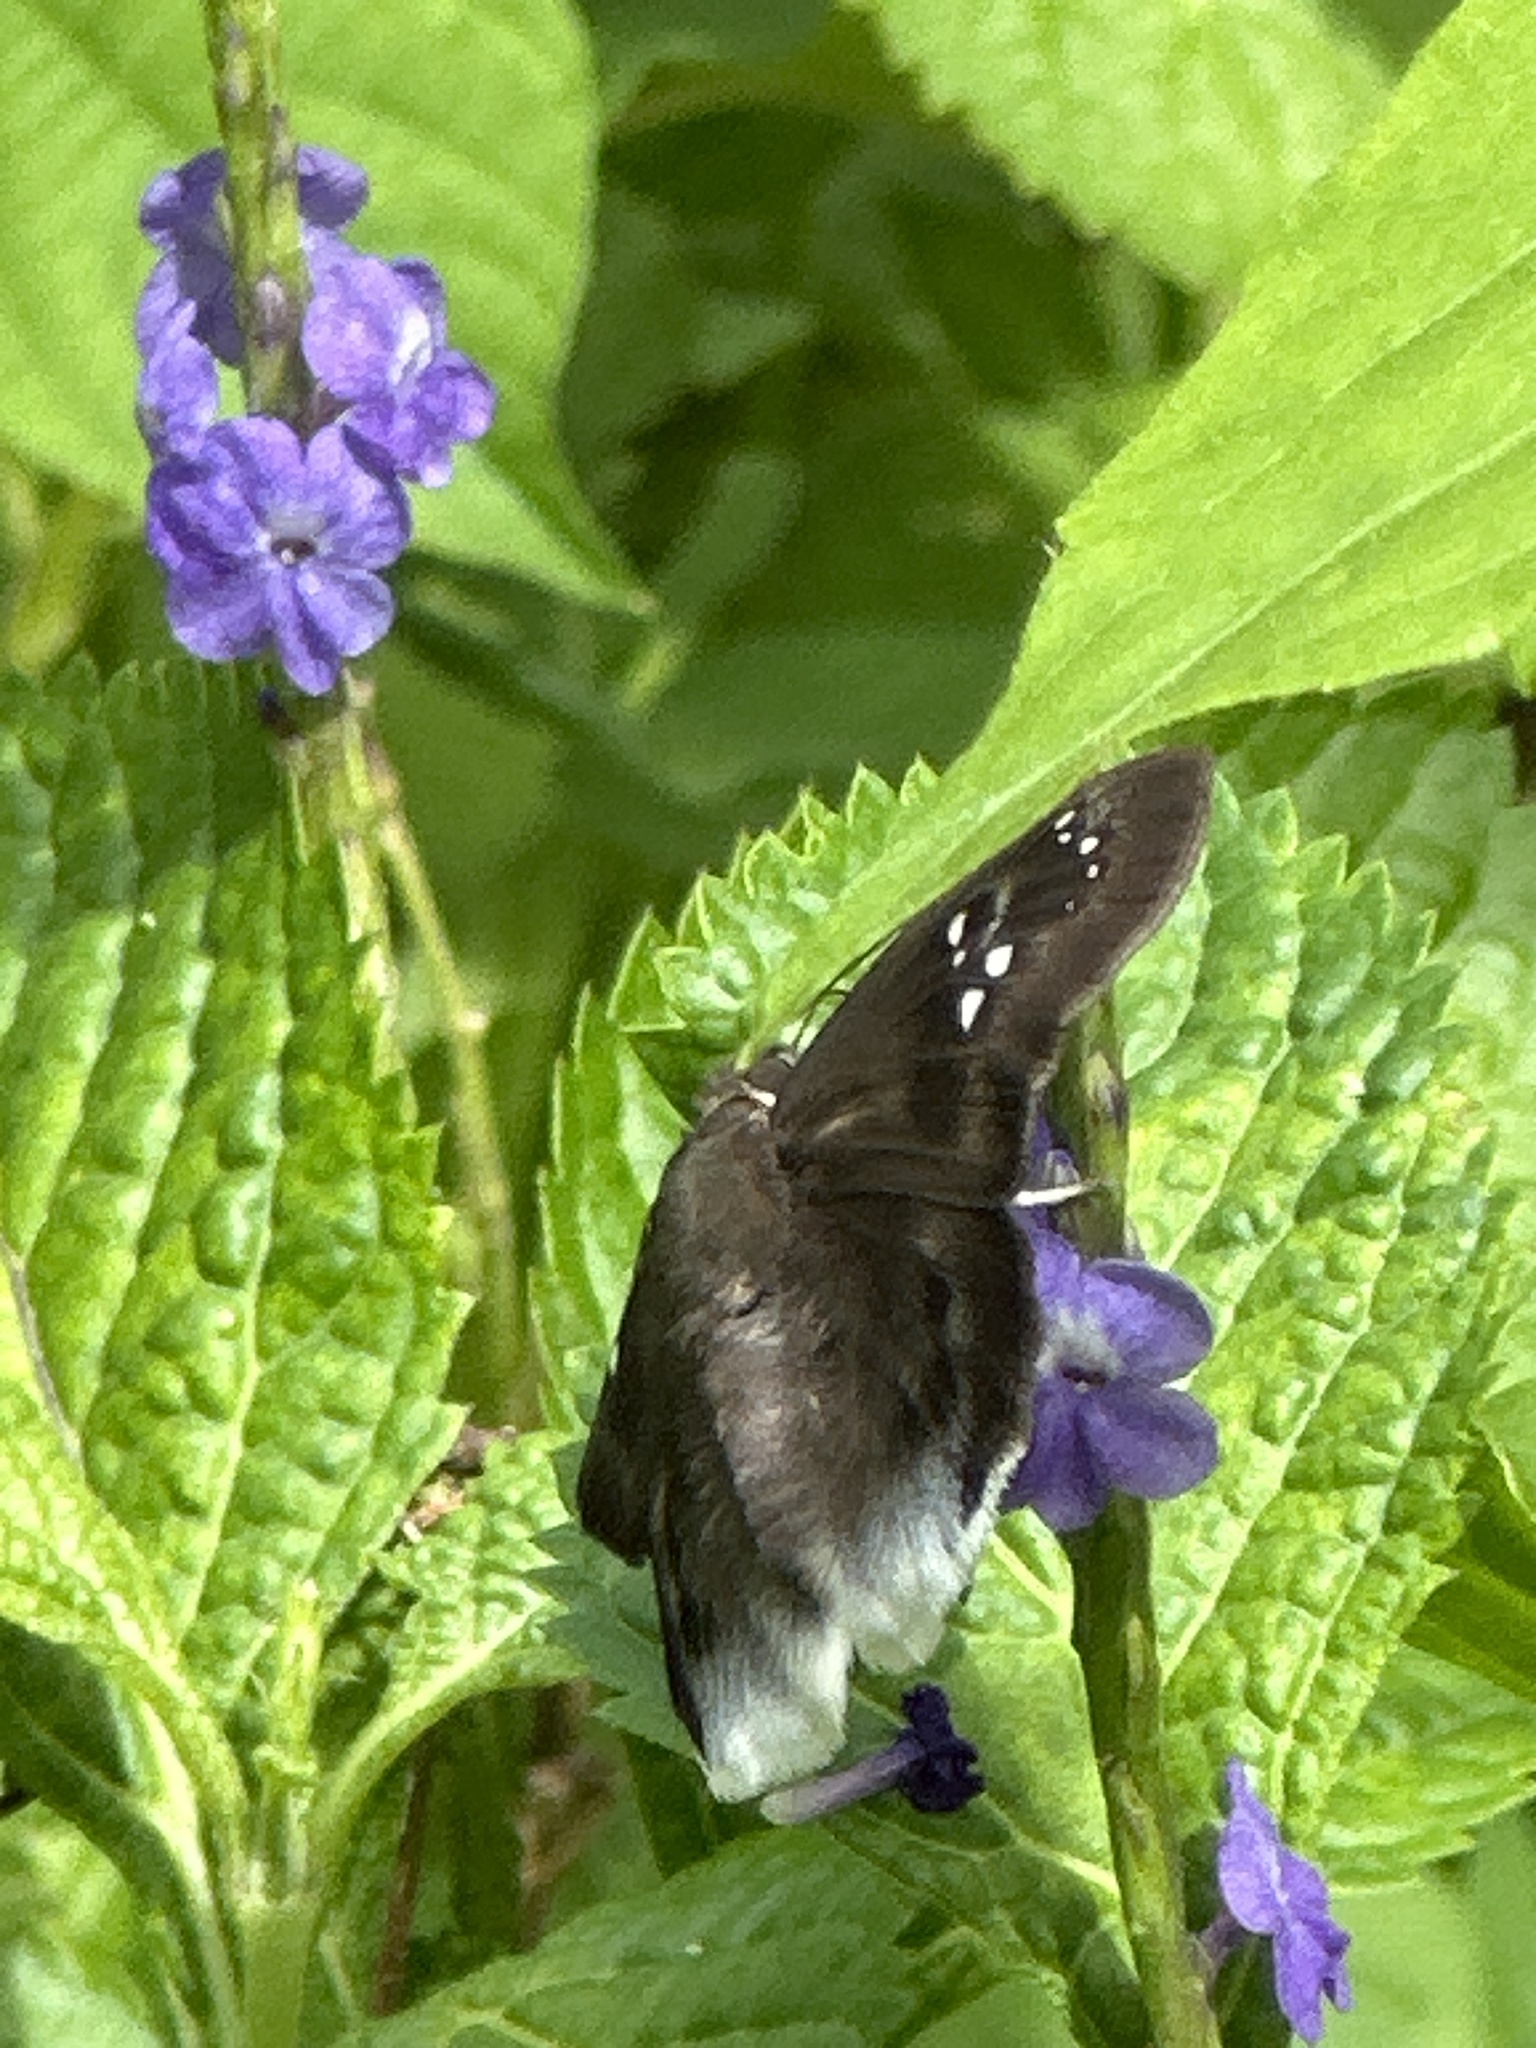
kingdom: Animalia
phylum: Arthropoda
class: Insecta
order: Lepidoptera
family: Hesperiidae
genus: Tagiades
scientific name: Tagiades japetus
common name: Pied flat
